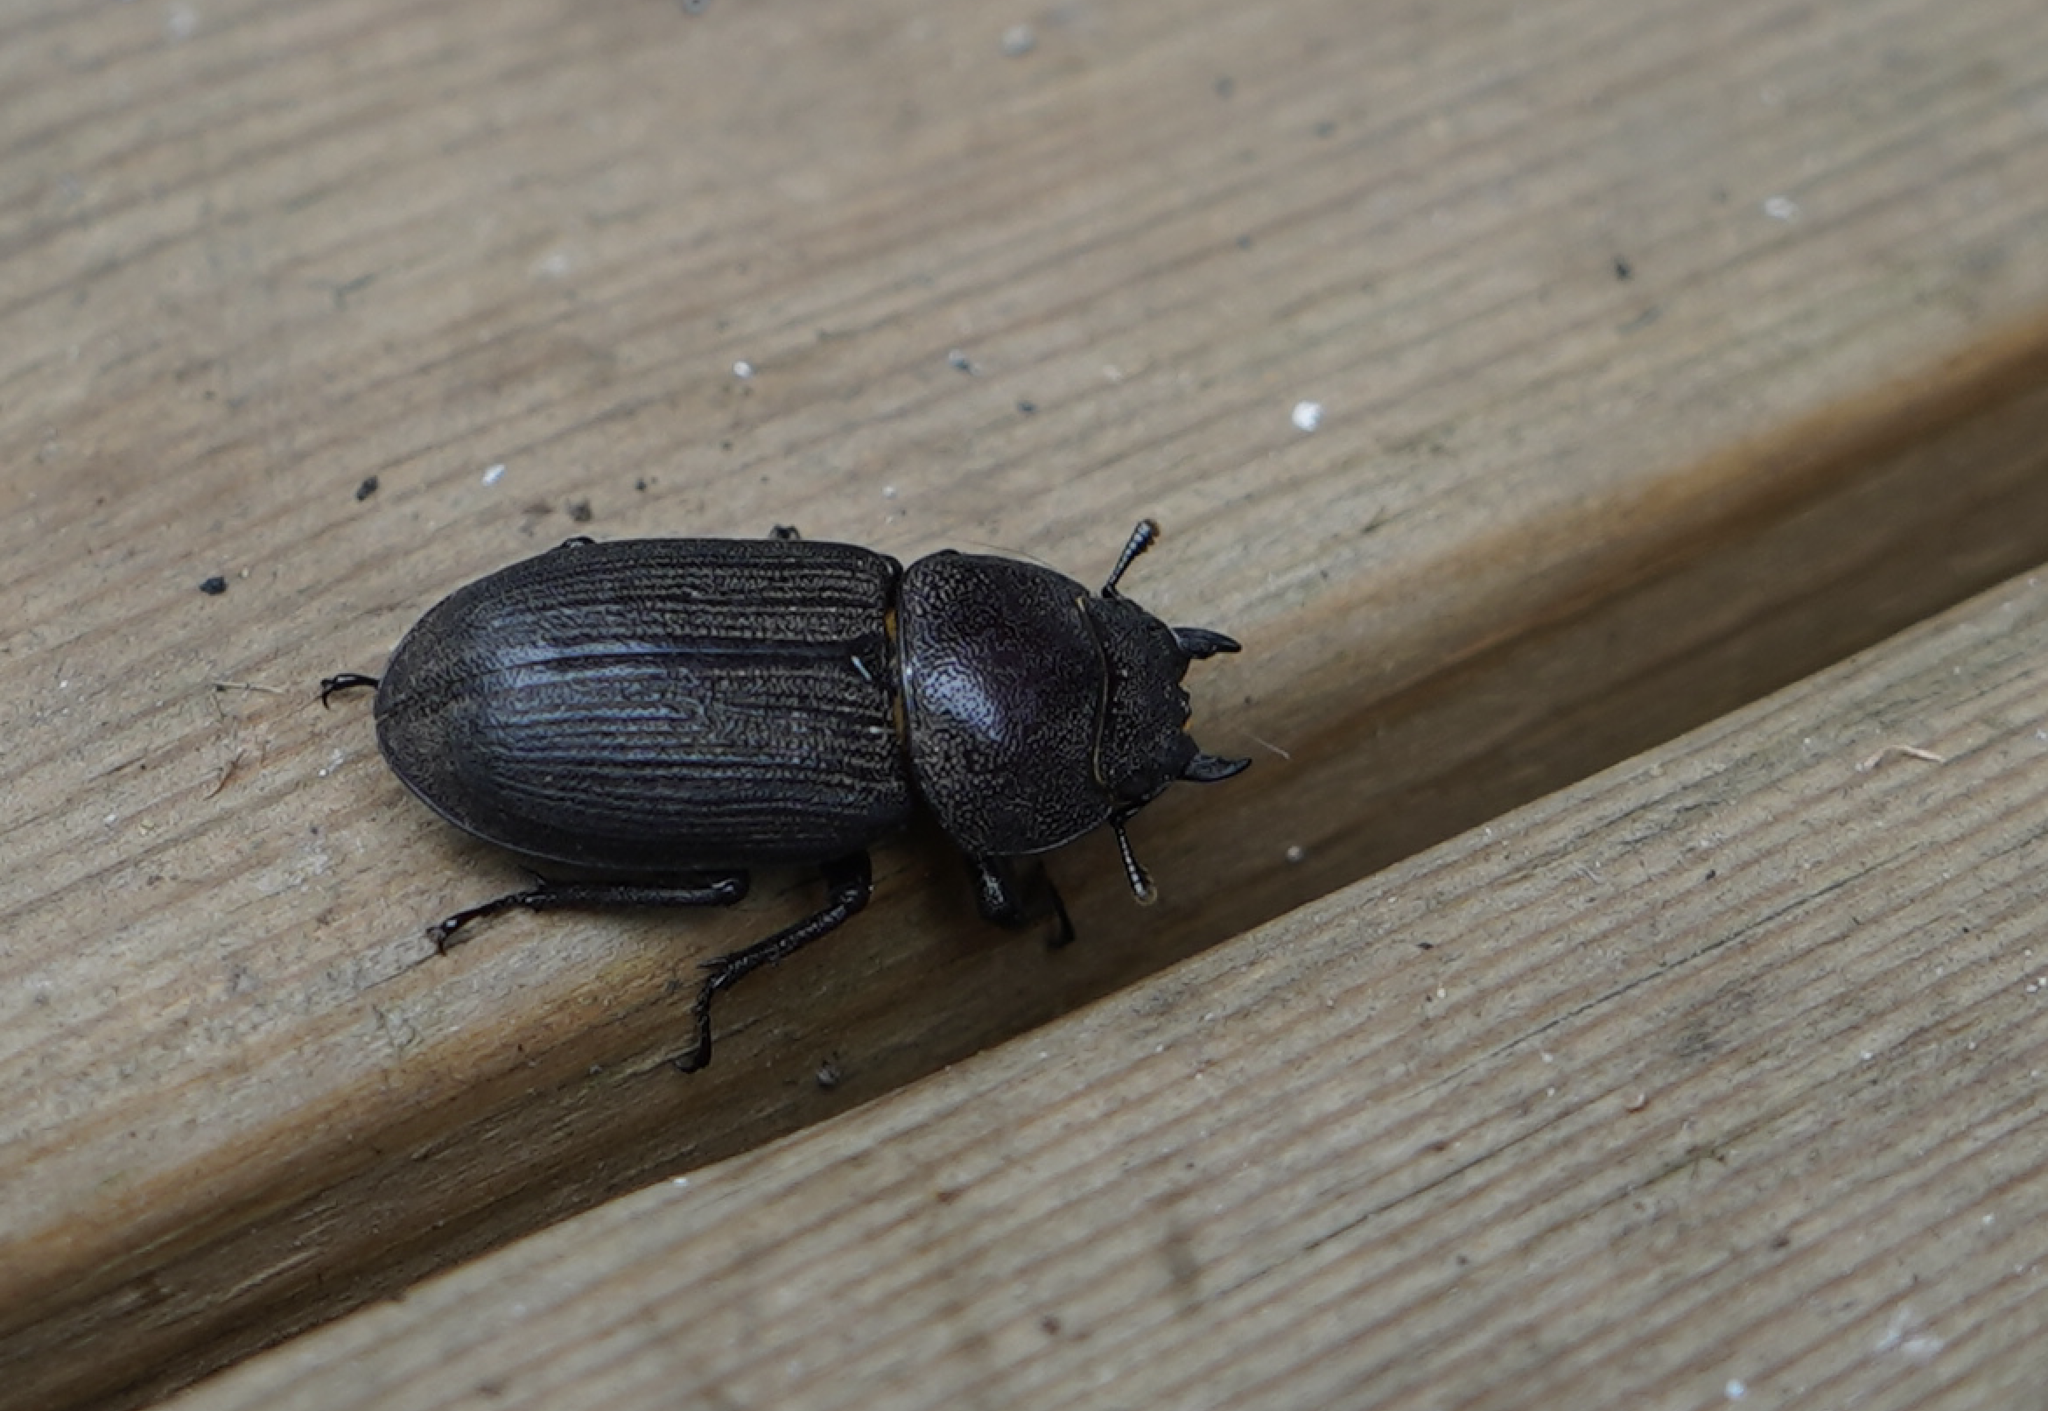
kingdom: Animalia
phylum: Arthropoda
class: Insecta
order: Coleoptera
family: Lucanidae
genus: Dorcus
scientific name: Dorcus parallelus
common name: Antelope beetle
